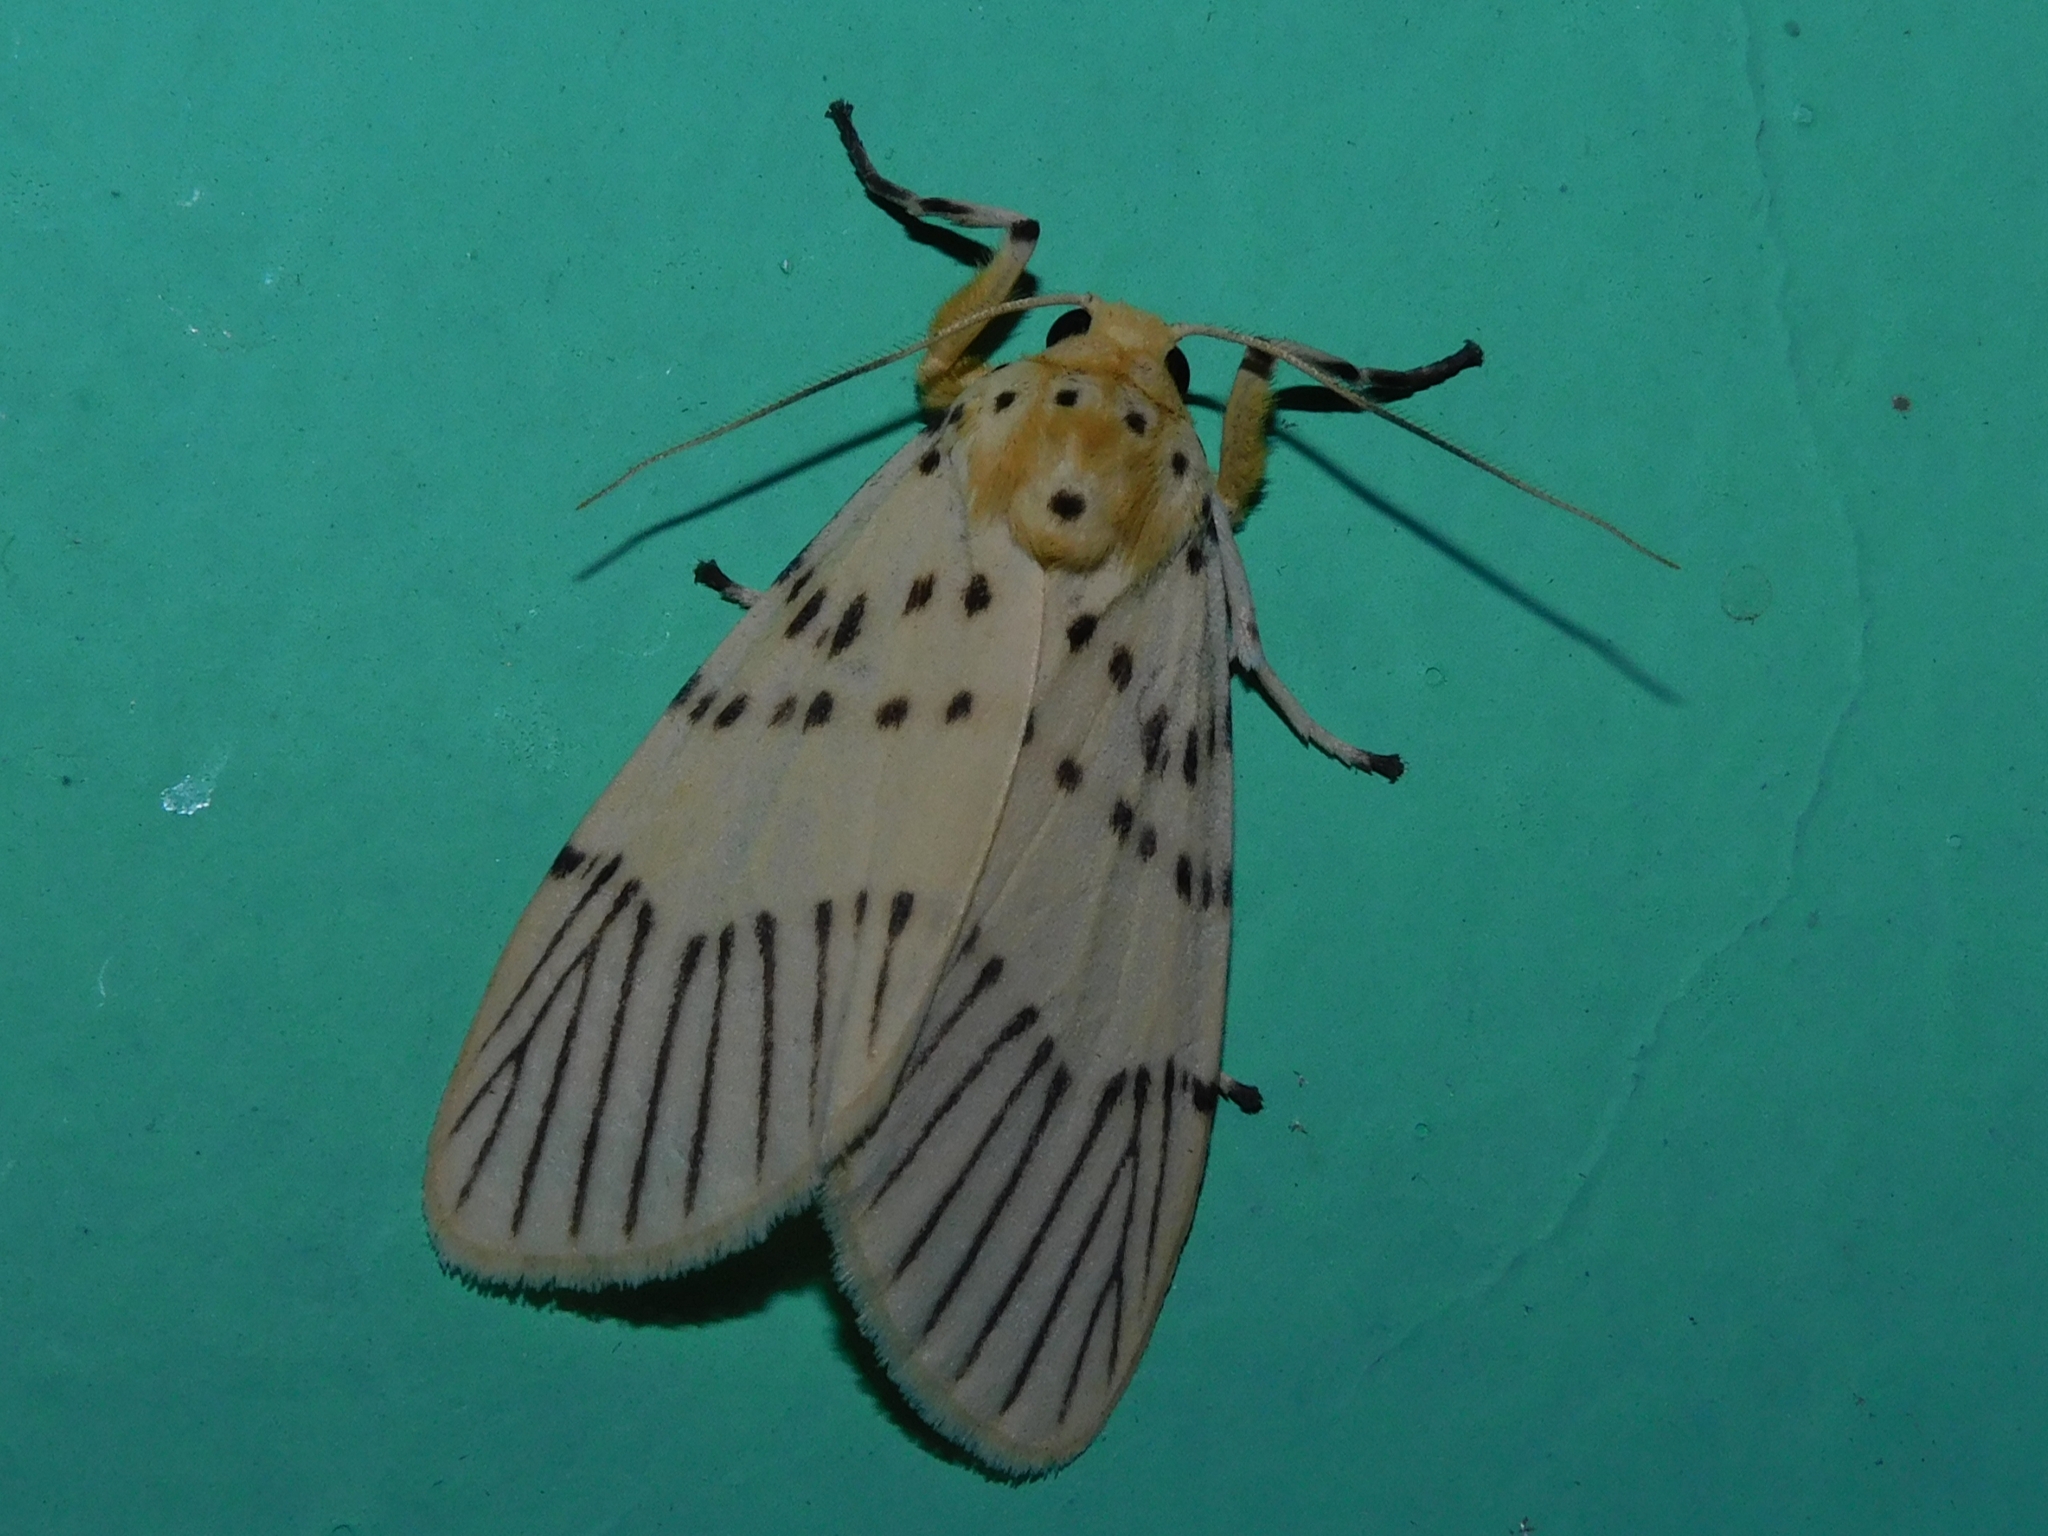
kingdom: Animalia
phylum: Arthropoda
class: Insecta
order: Lepidoptera
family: Erebidae
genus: Barsine
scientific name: Barsine linga
